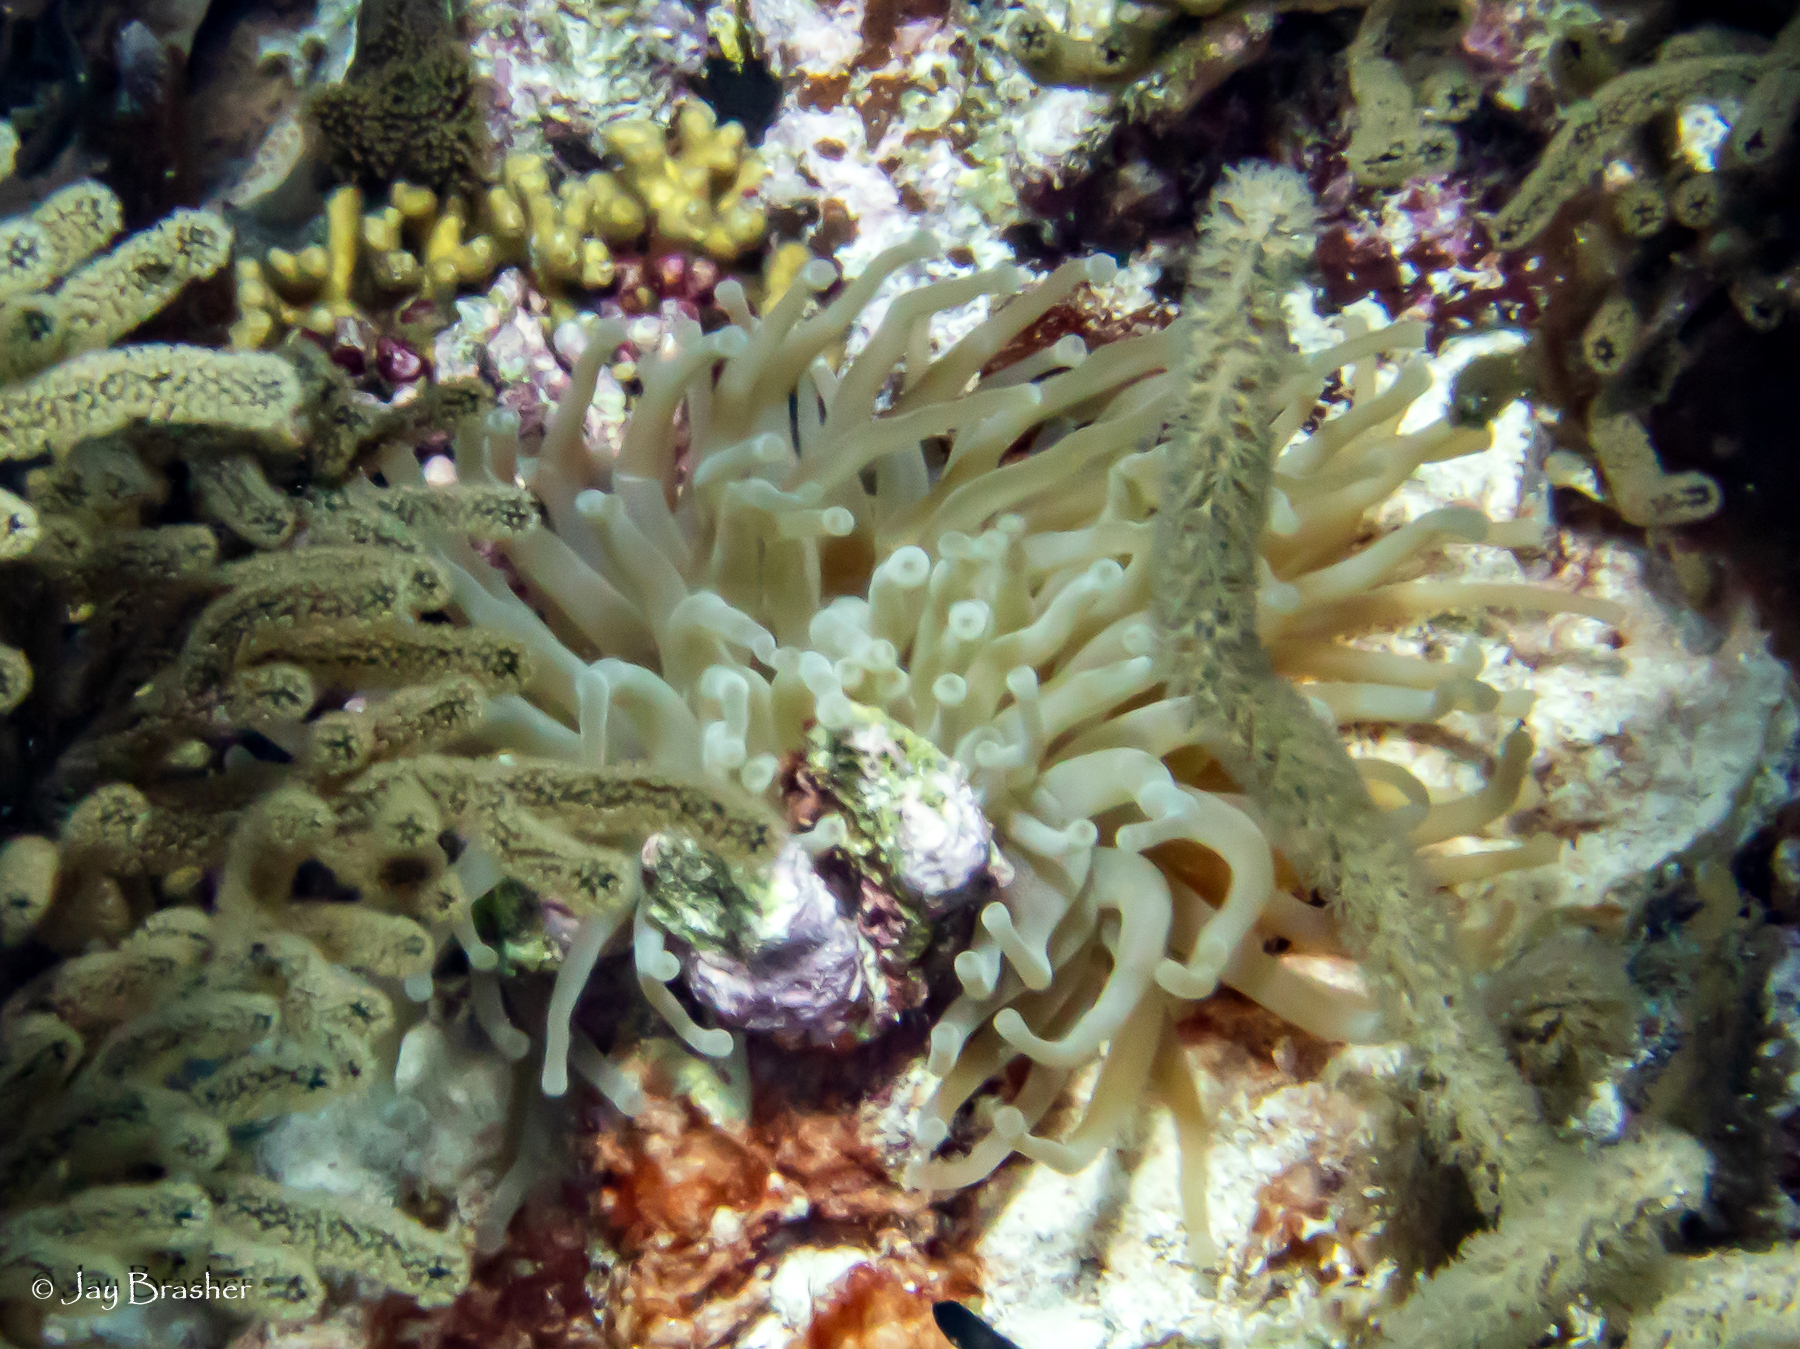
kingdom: Animalia
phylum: Cnidaria
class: Anthozoa
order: Actiniaria
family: Actiniidae
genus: Condylactis
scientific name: Condylactis gigantea
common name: Giant caribbean anemone
